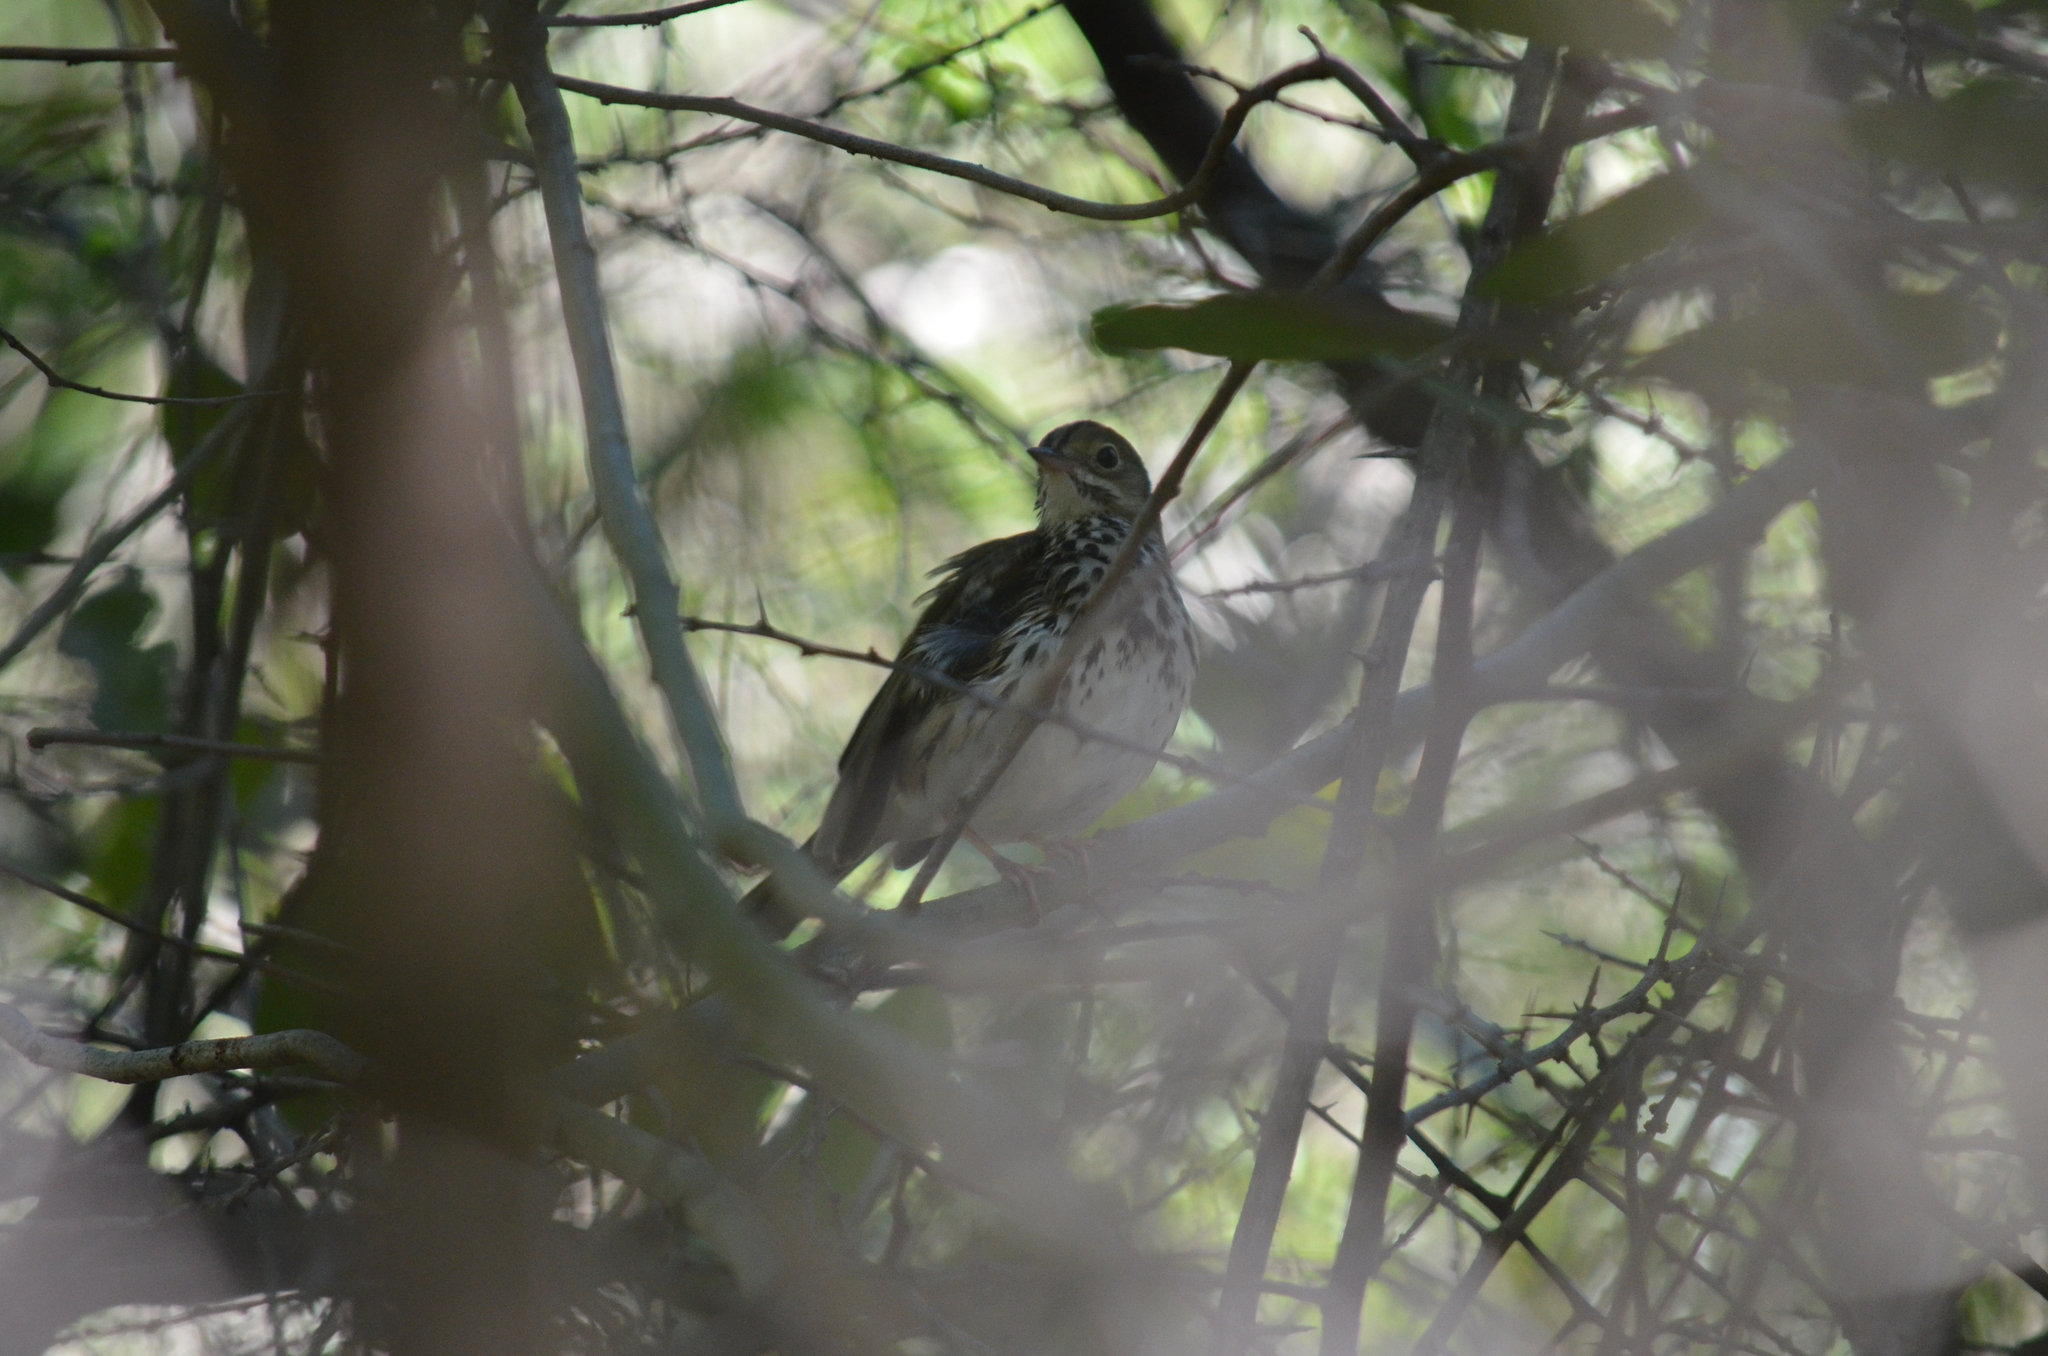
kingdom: Animalia
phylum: Chordata
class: Aves
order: Passeriformes
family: Parulidae
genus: Seiurus
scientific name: Seiurus aurocapilla
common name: Ovenbird
